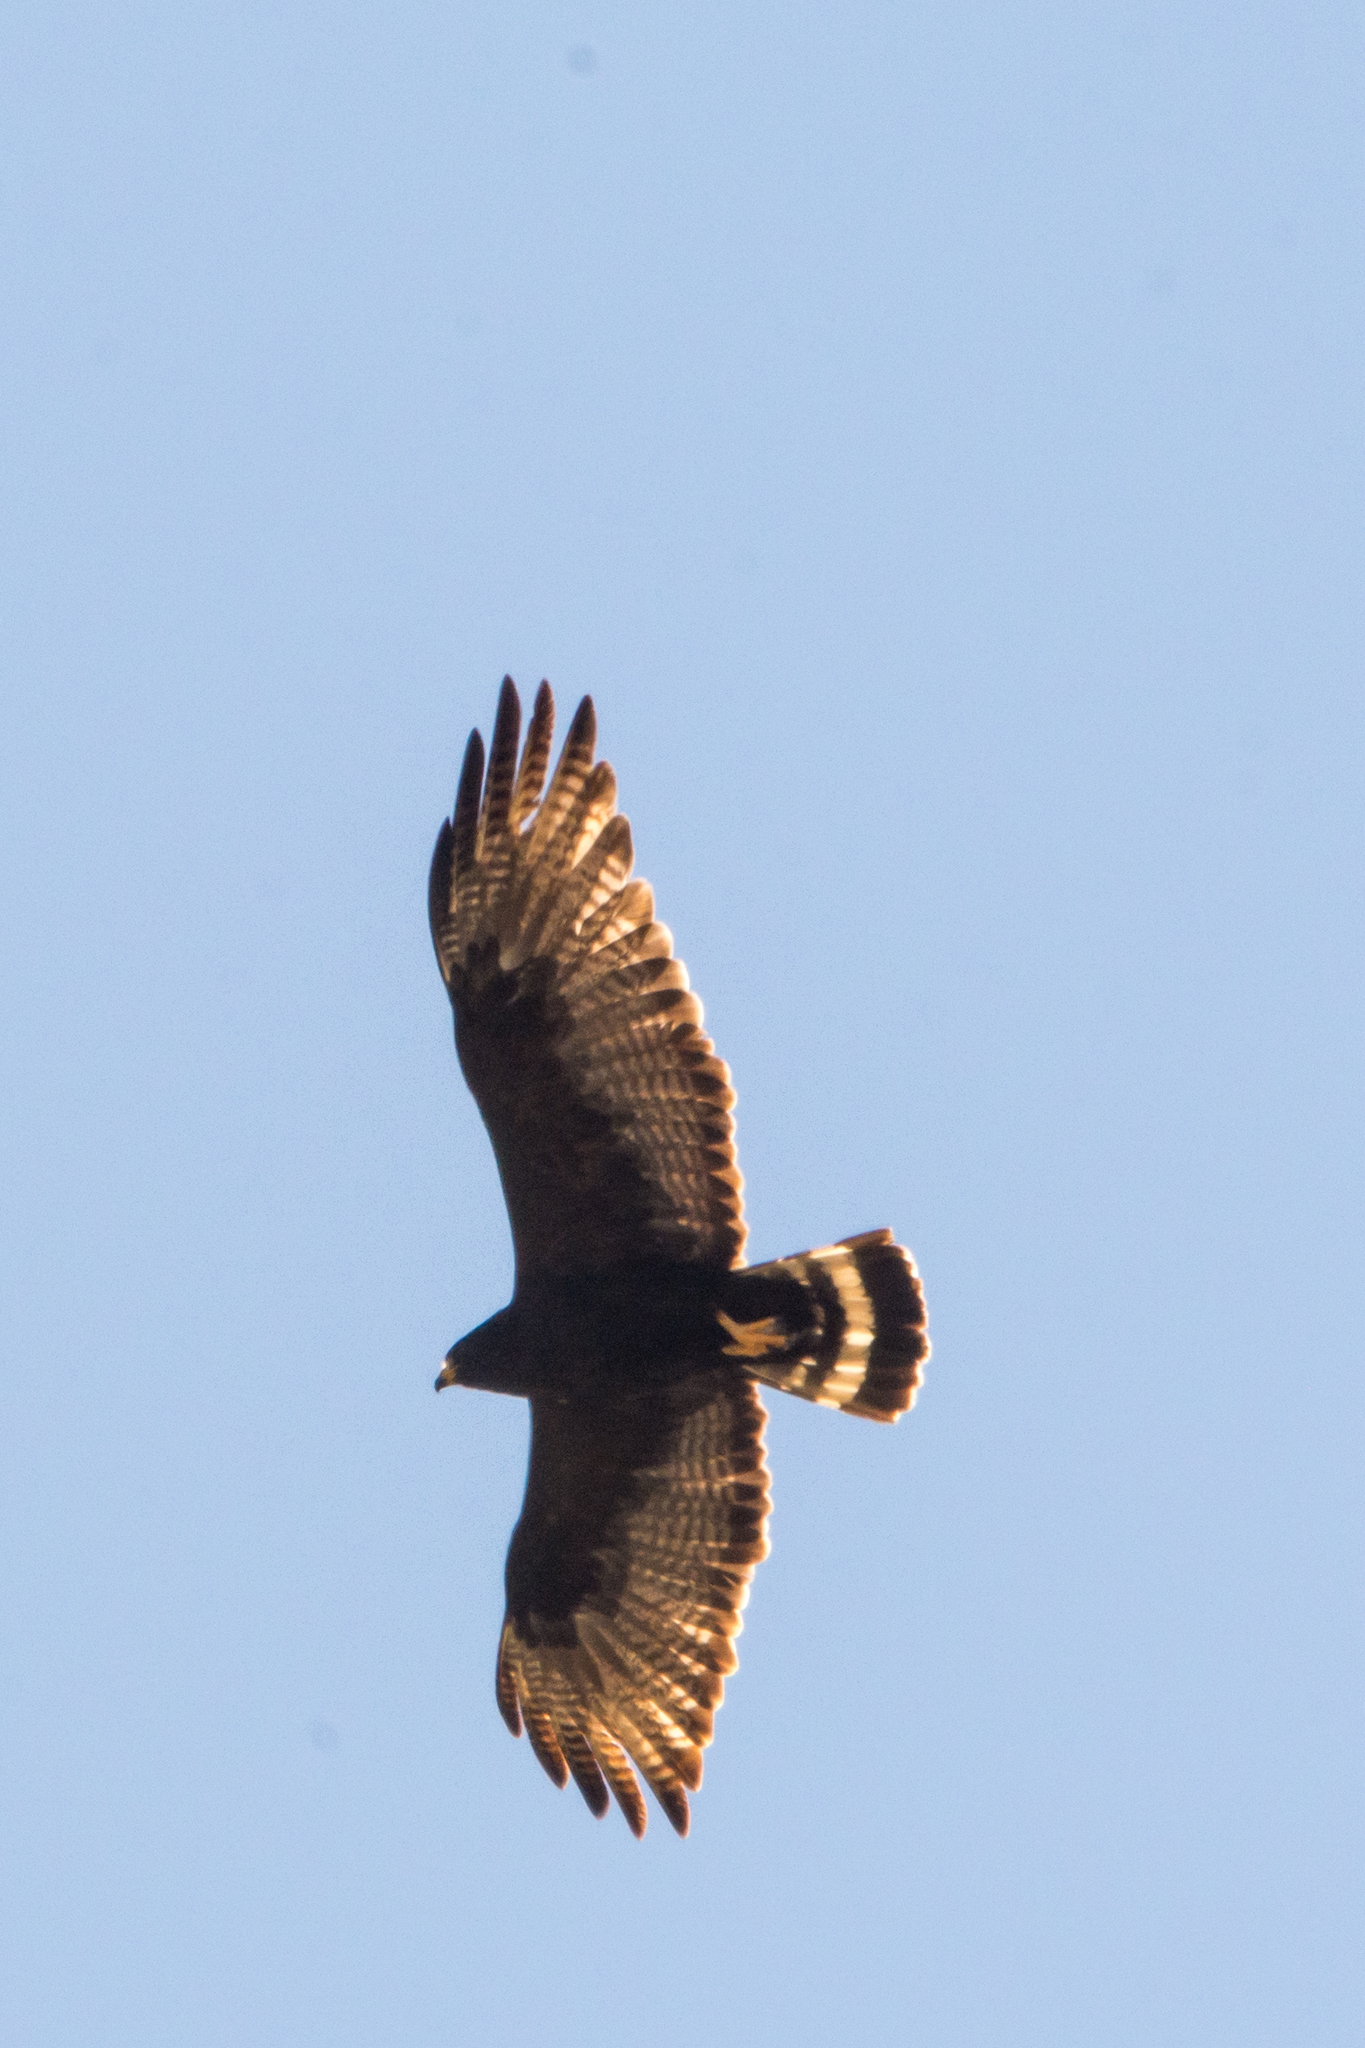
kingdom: Animalia
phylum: Chordata
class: Aves
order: Accipitriformes
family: Accipitridae
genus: Buteo
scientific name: Buteo albonotatus
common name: Zone-tailed hawk
